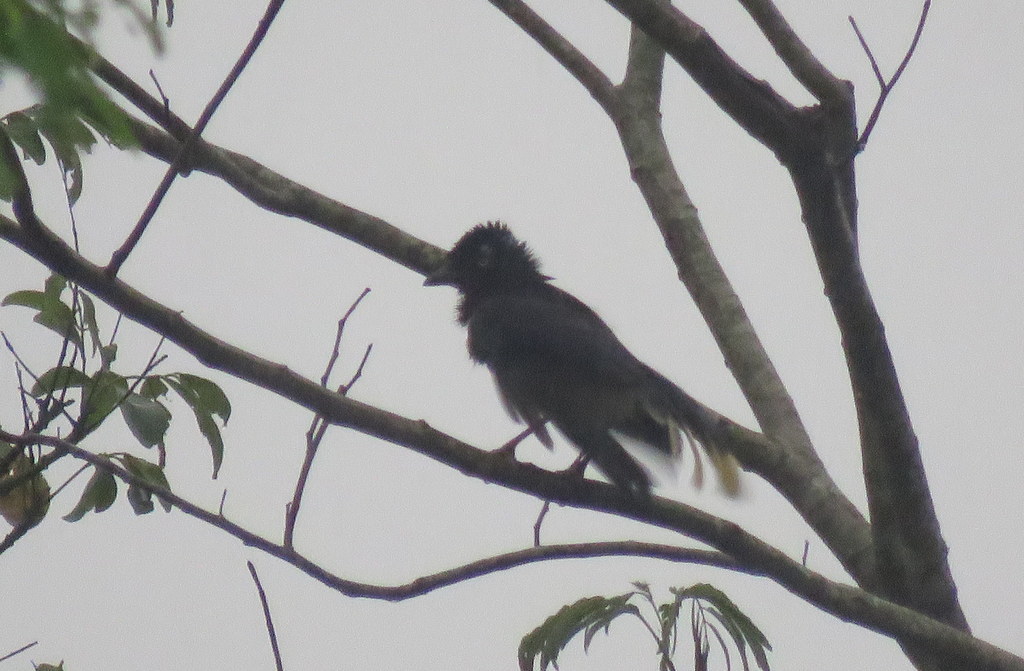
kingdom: Animalia
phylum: Chordata
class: Aves
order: Passeriformes
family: Corvidae
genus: Cyanocorax
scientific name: Cyanocorax chrysops
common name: Plush-crested jay
